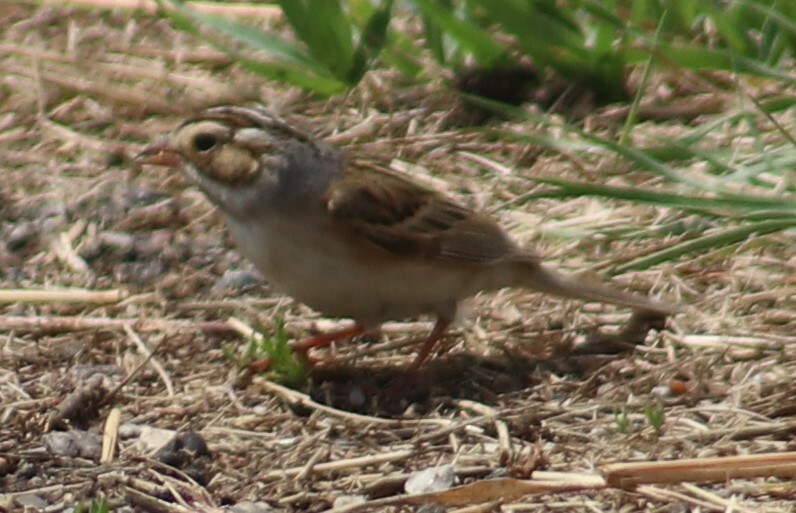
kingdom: Animalia
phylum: Chordata
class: Aves
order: Passeriformes
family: Passerellidae
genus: Spizella
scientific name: Spizella pallida
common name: Clay-colored sparrow
